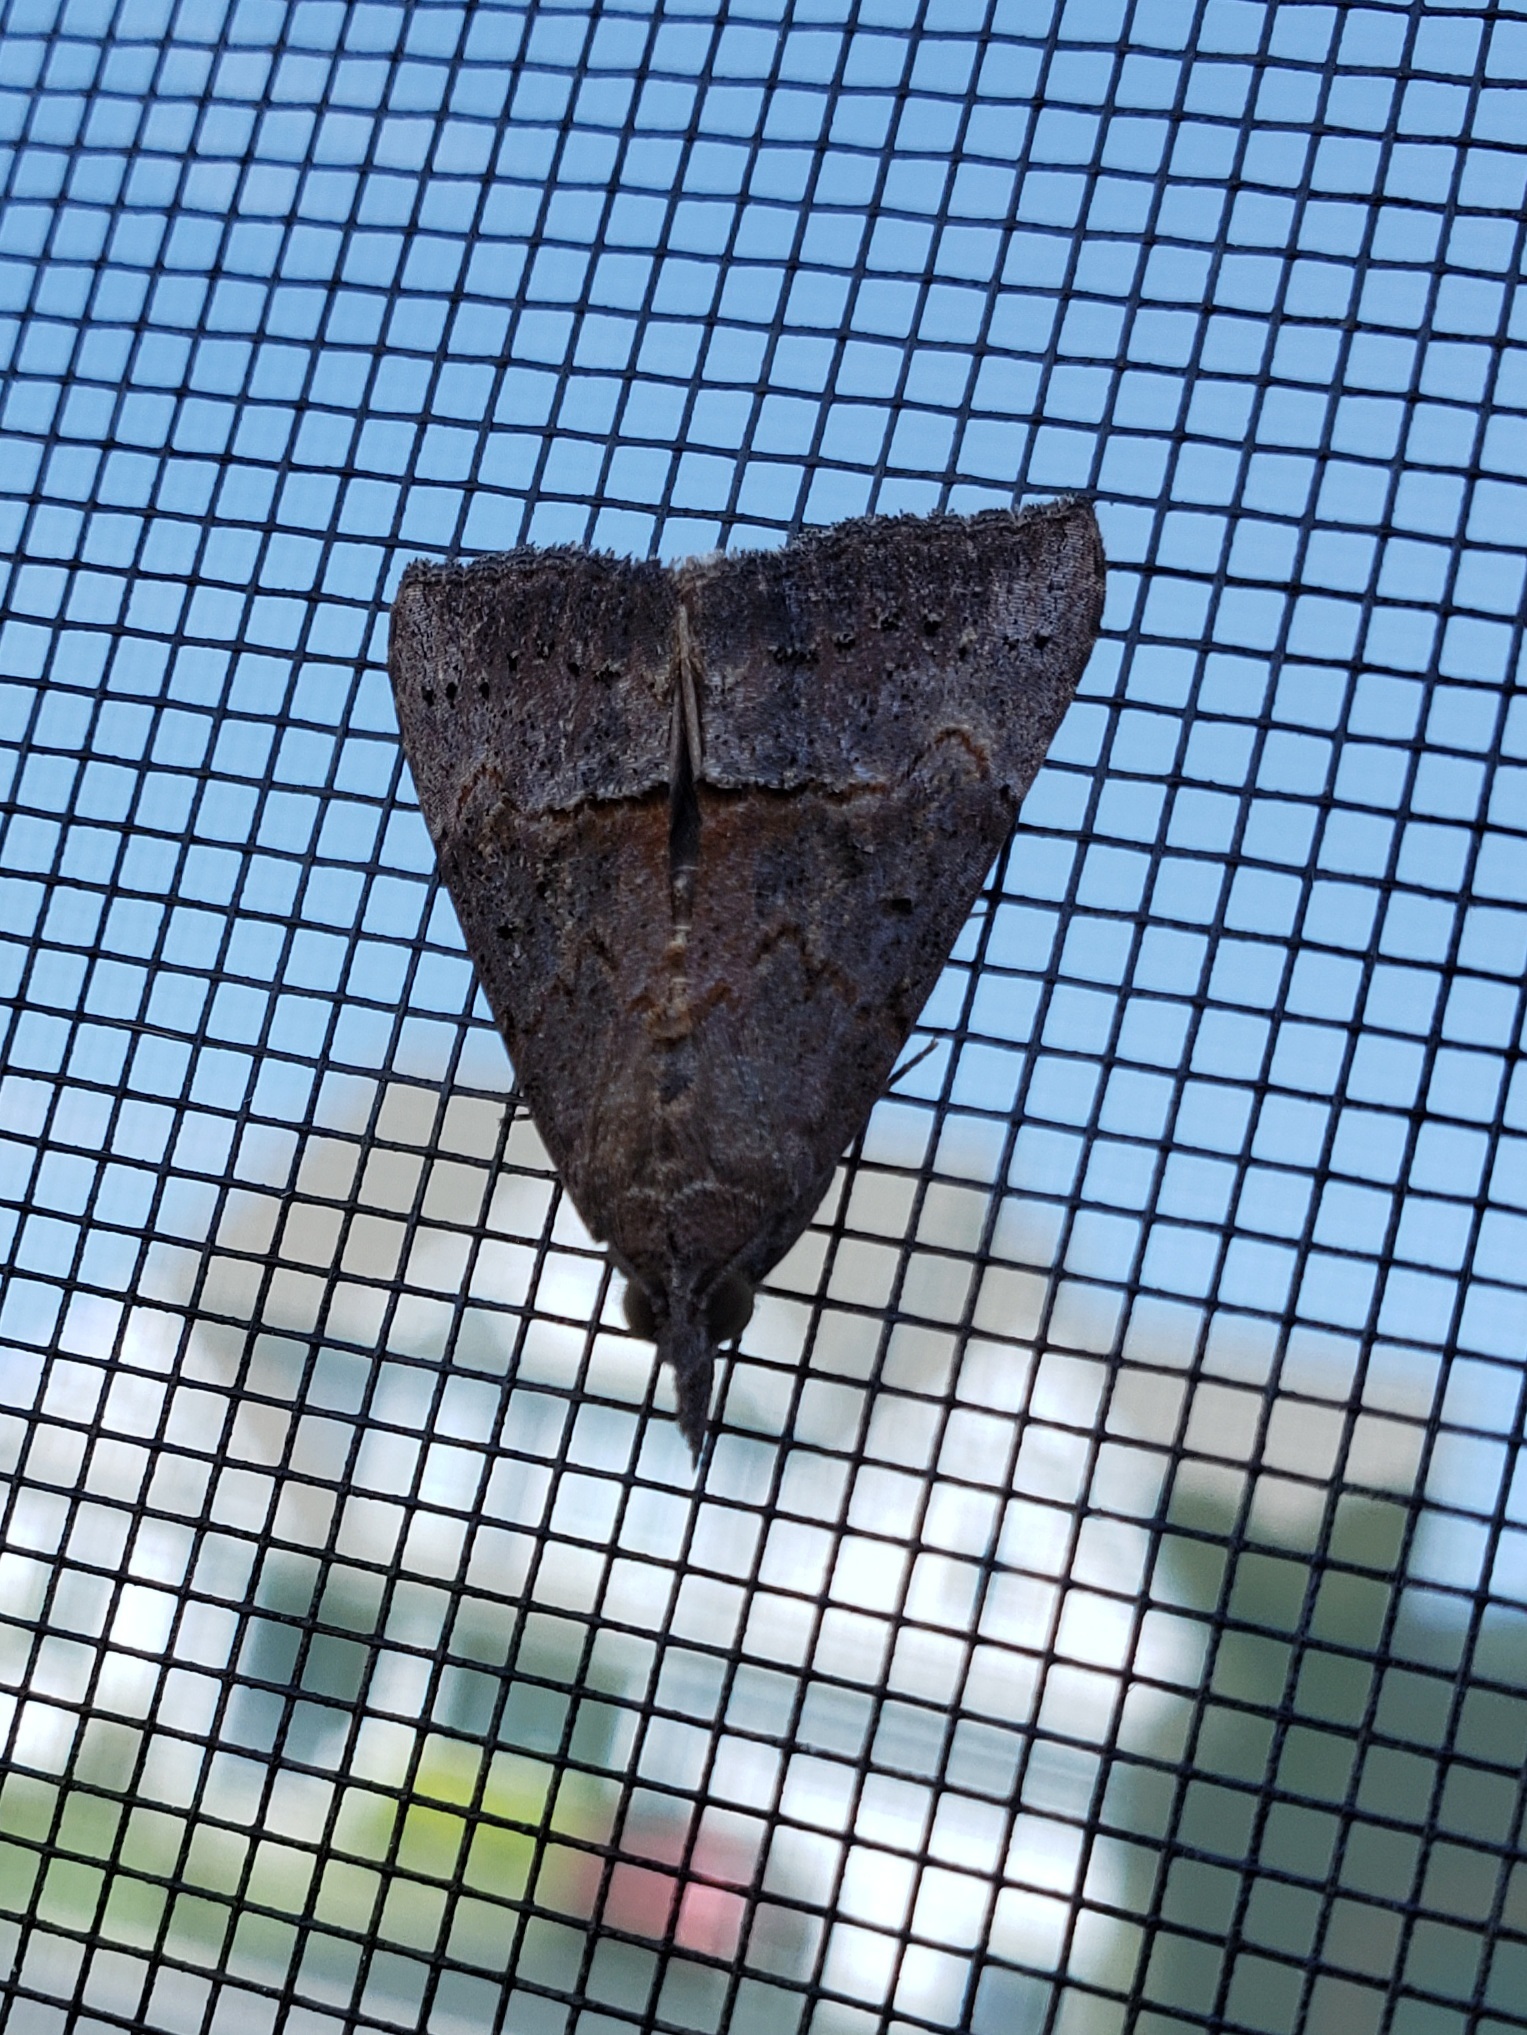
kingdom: Animalia
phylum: Arthropoda
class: Insecta
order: Lepidoptera
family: Erebidae
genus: Hypena
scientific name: Hypena scabra
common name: Green cloverworm
